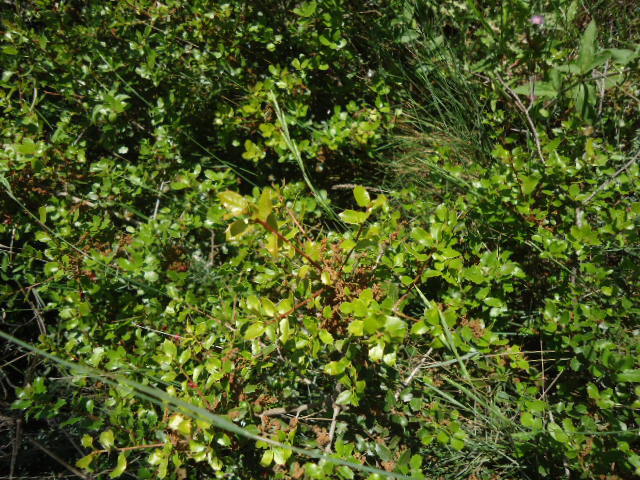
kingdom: Plantae
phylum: Tracheophyta
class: Magnoliopsida
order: Fagales
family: Fagaceae
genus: Quercus
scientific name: Quercus coccifera
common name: Kermes oak
